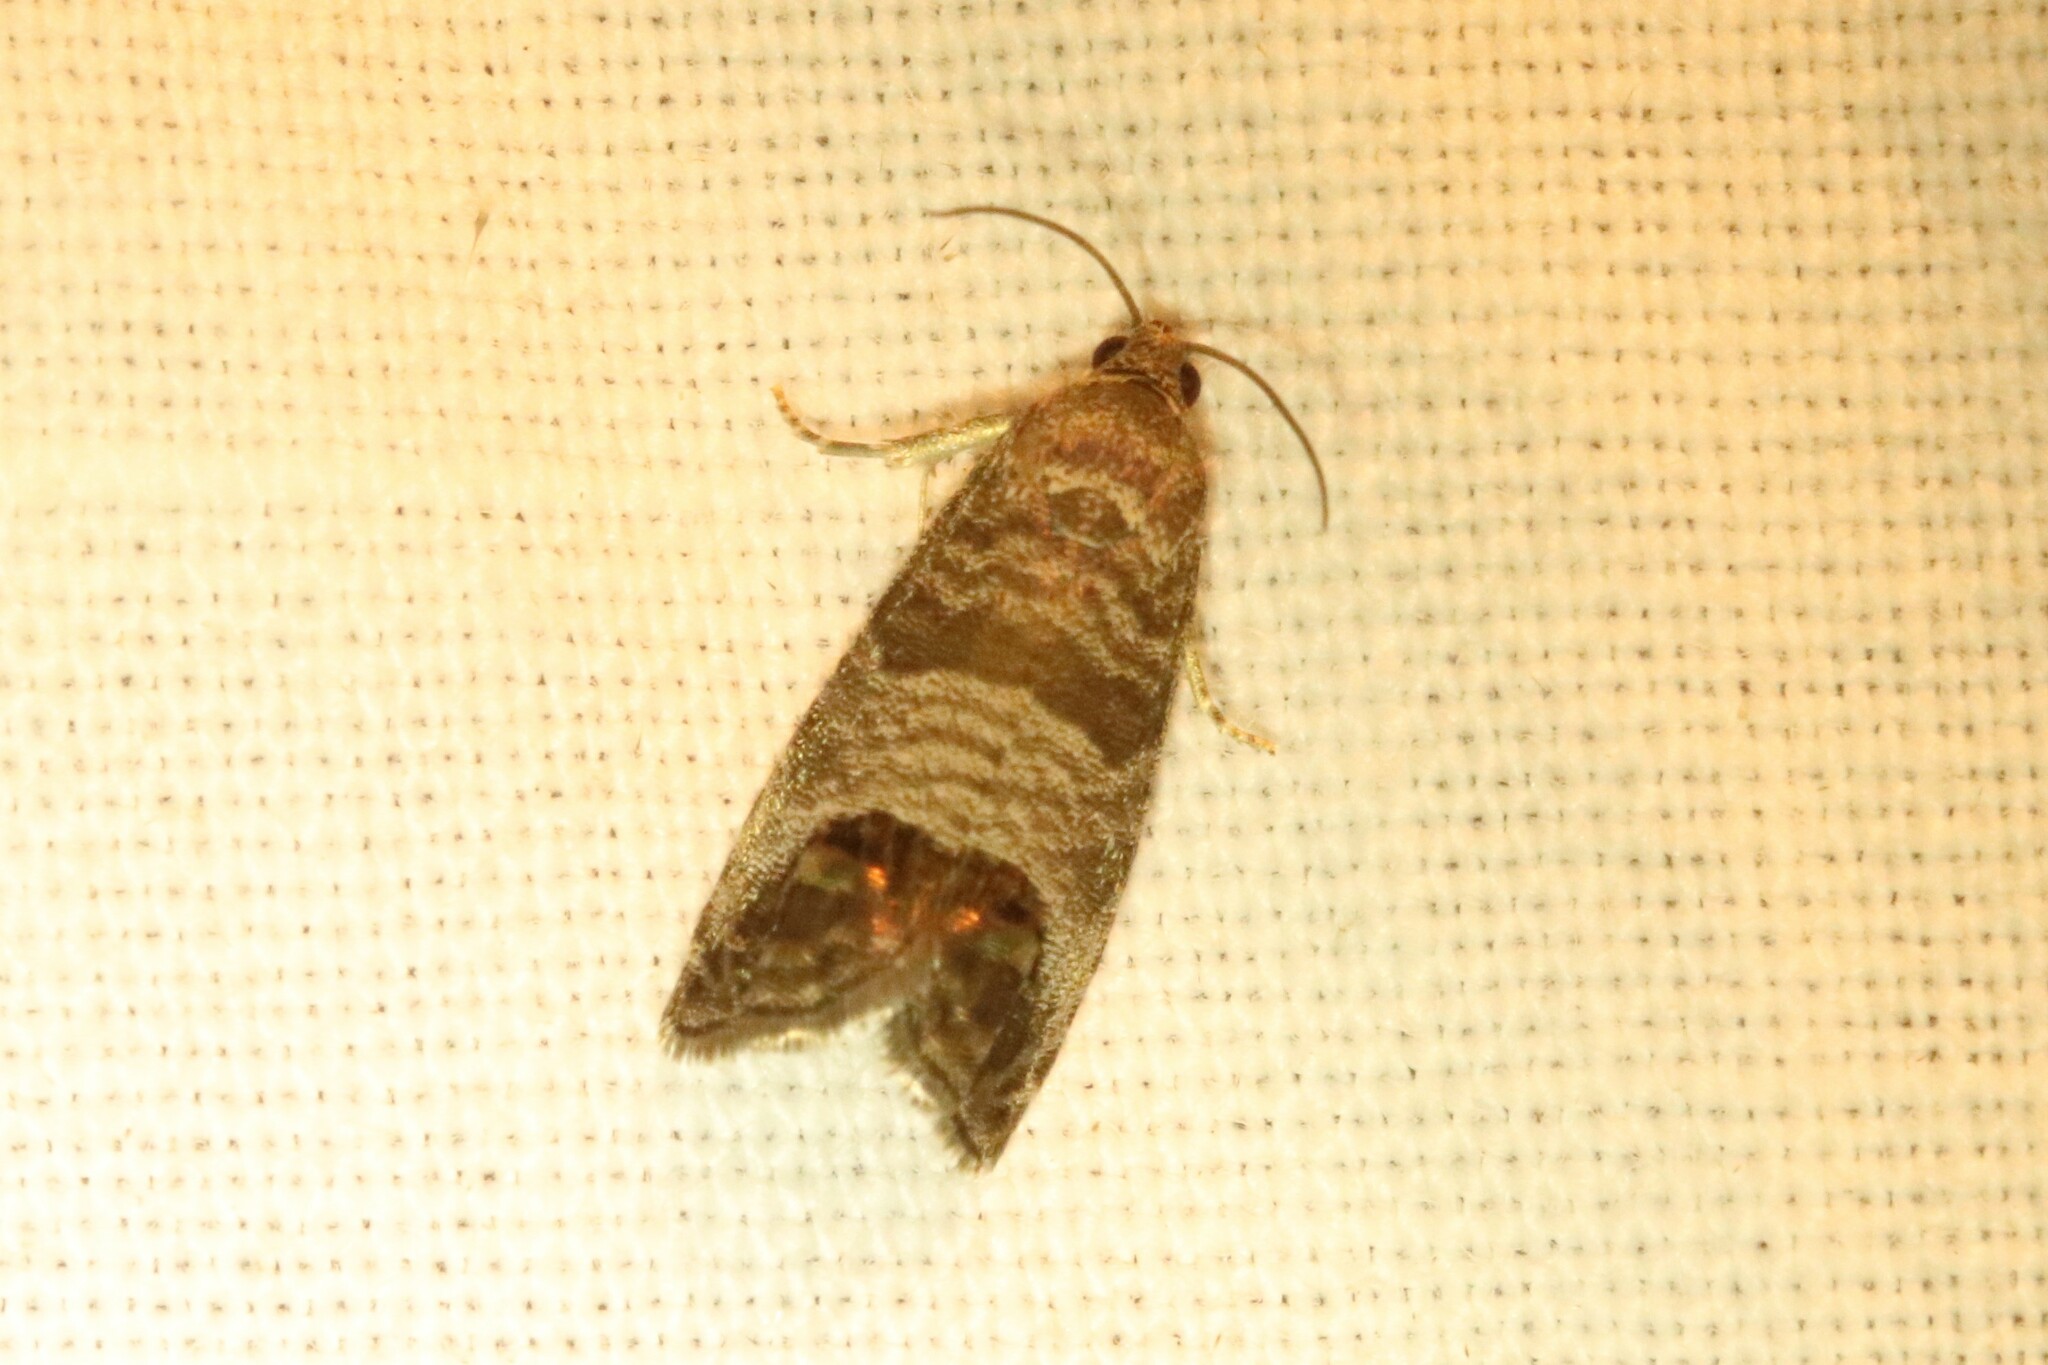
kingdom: Animalia
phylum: Arthropoda
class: Insecta
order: Lepidoptera
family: Tortricidae
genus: Cydia
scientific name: Cydia pomonella
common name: Codling moth
